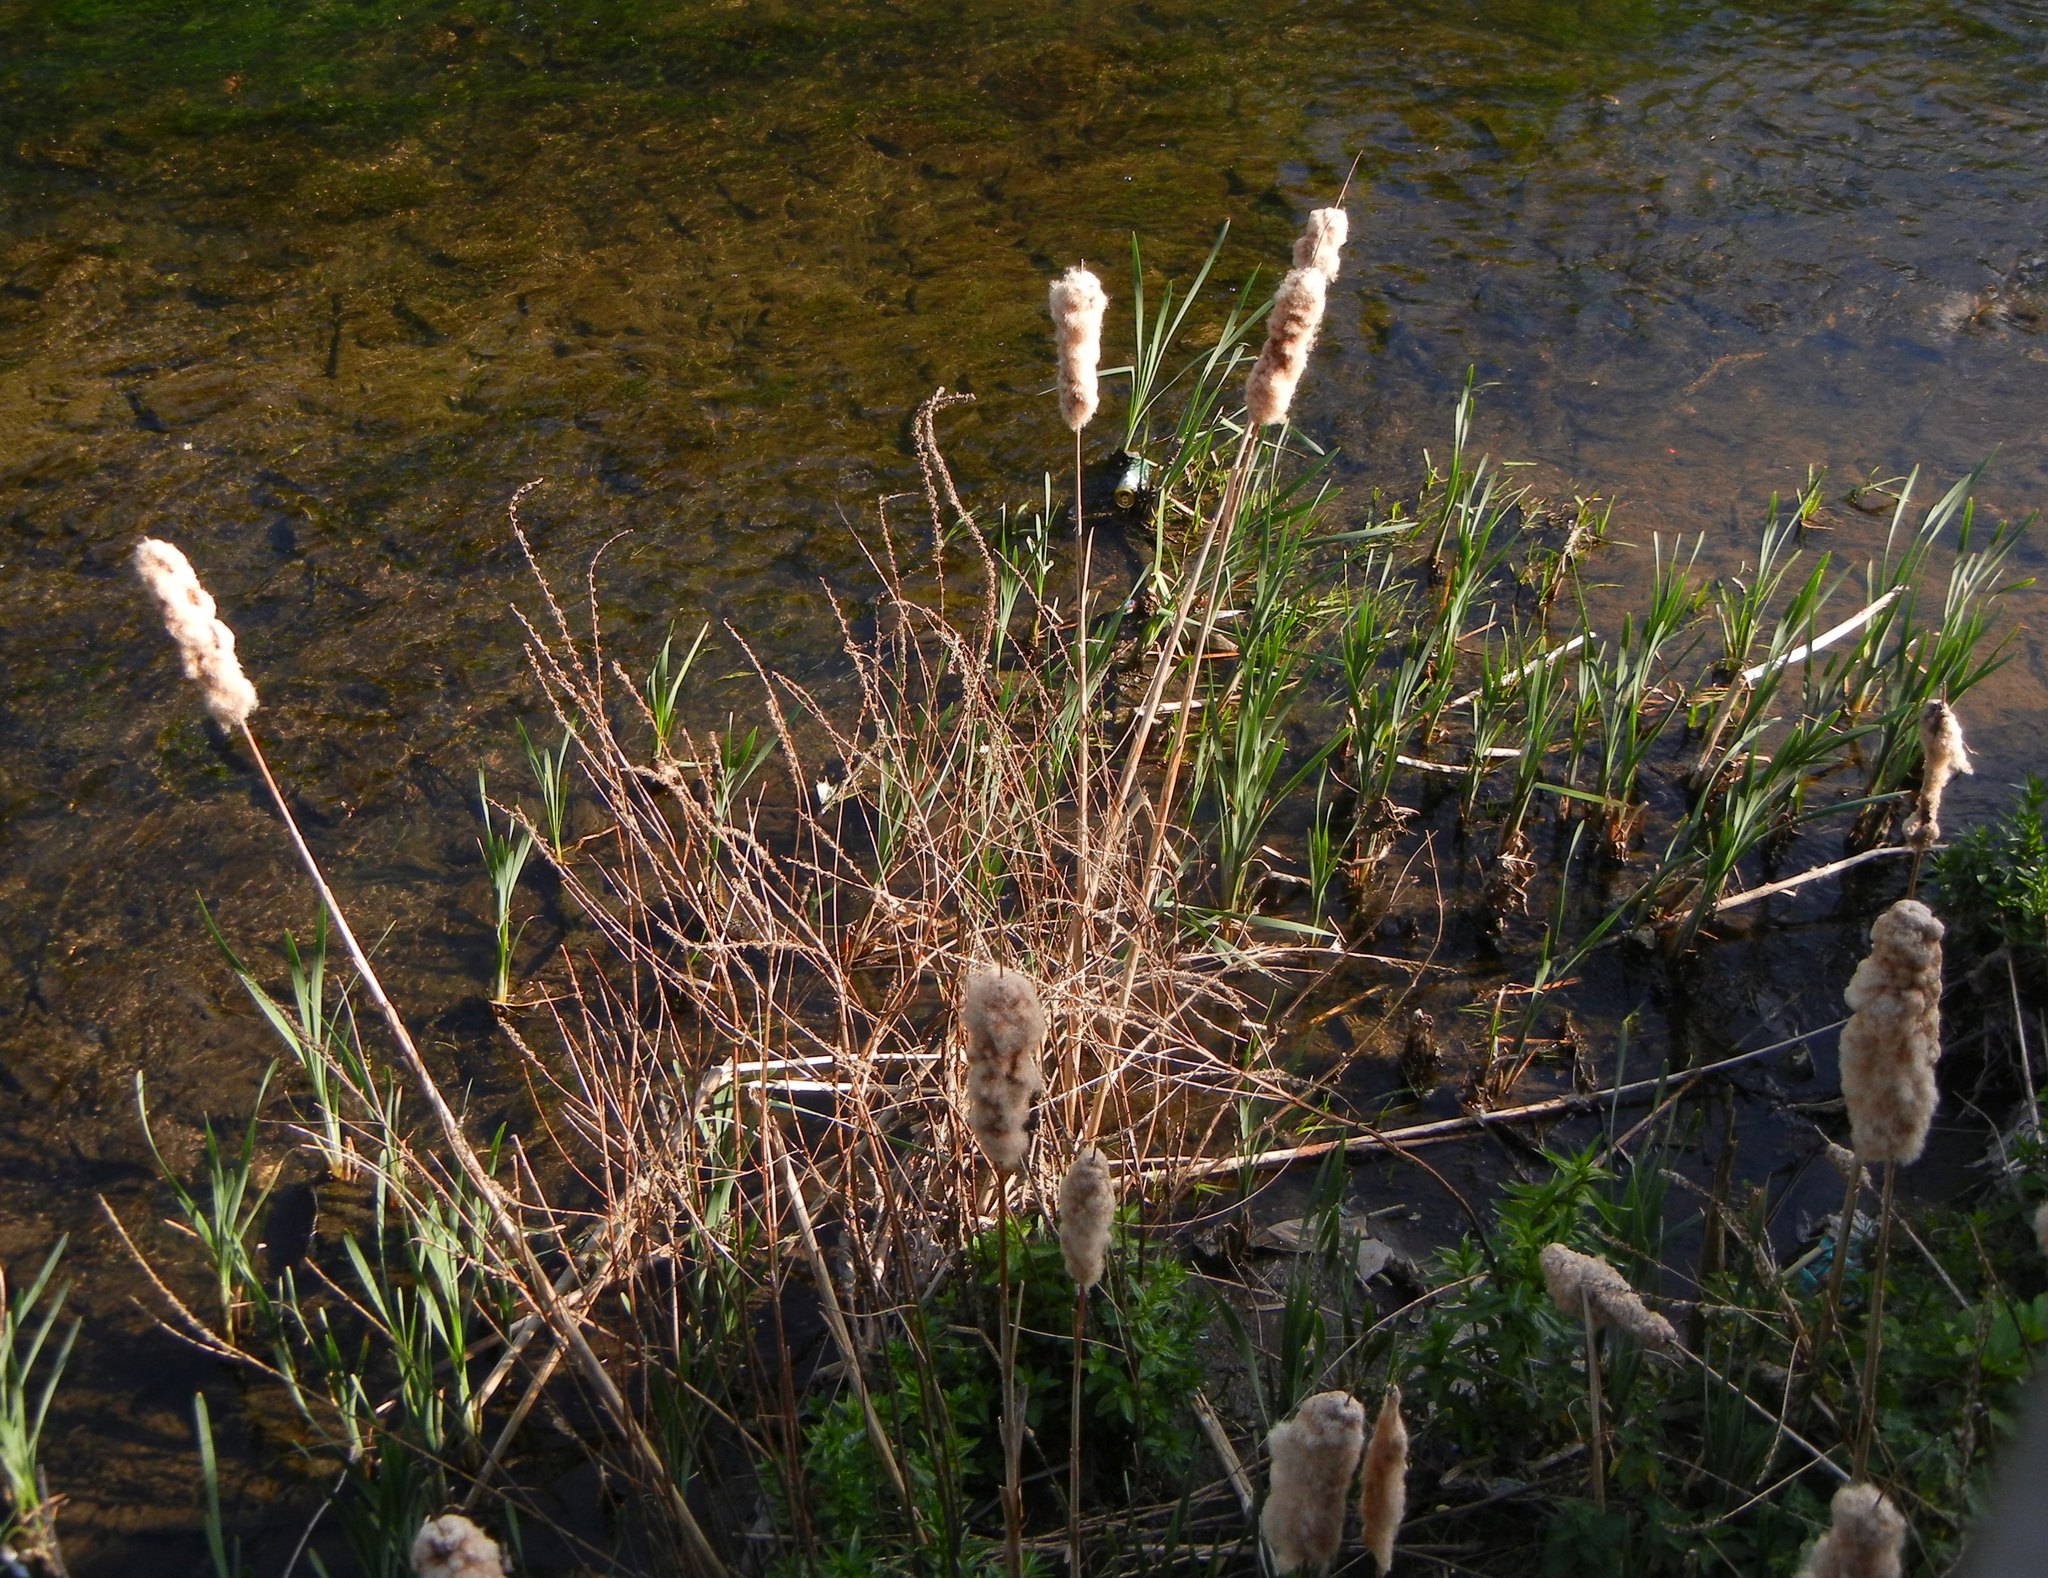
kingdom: Plantae
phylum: Tracheophyta
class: Liliopsida
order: Poales
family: Typhaceae
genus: Typha
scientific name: Typha latifolia
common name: Broadleaf cattail
